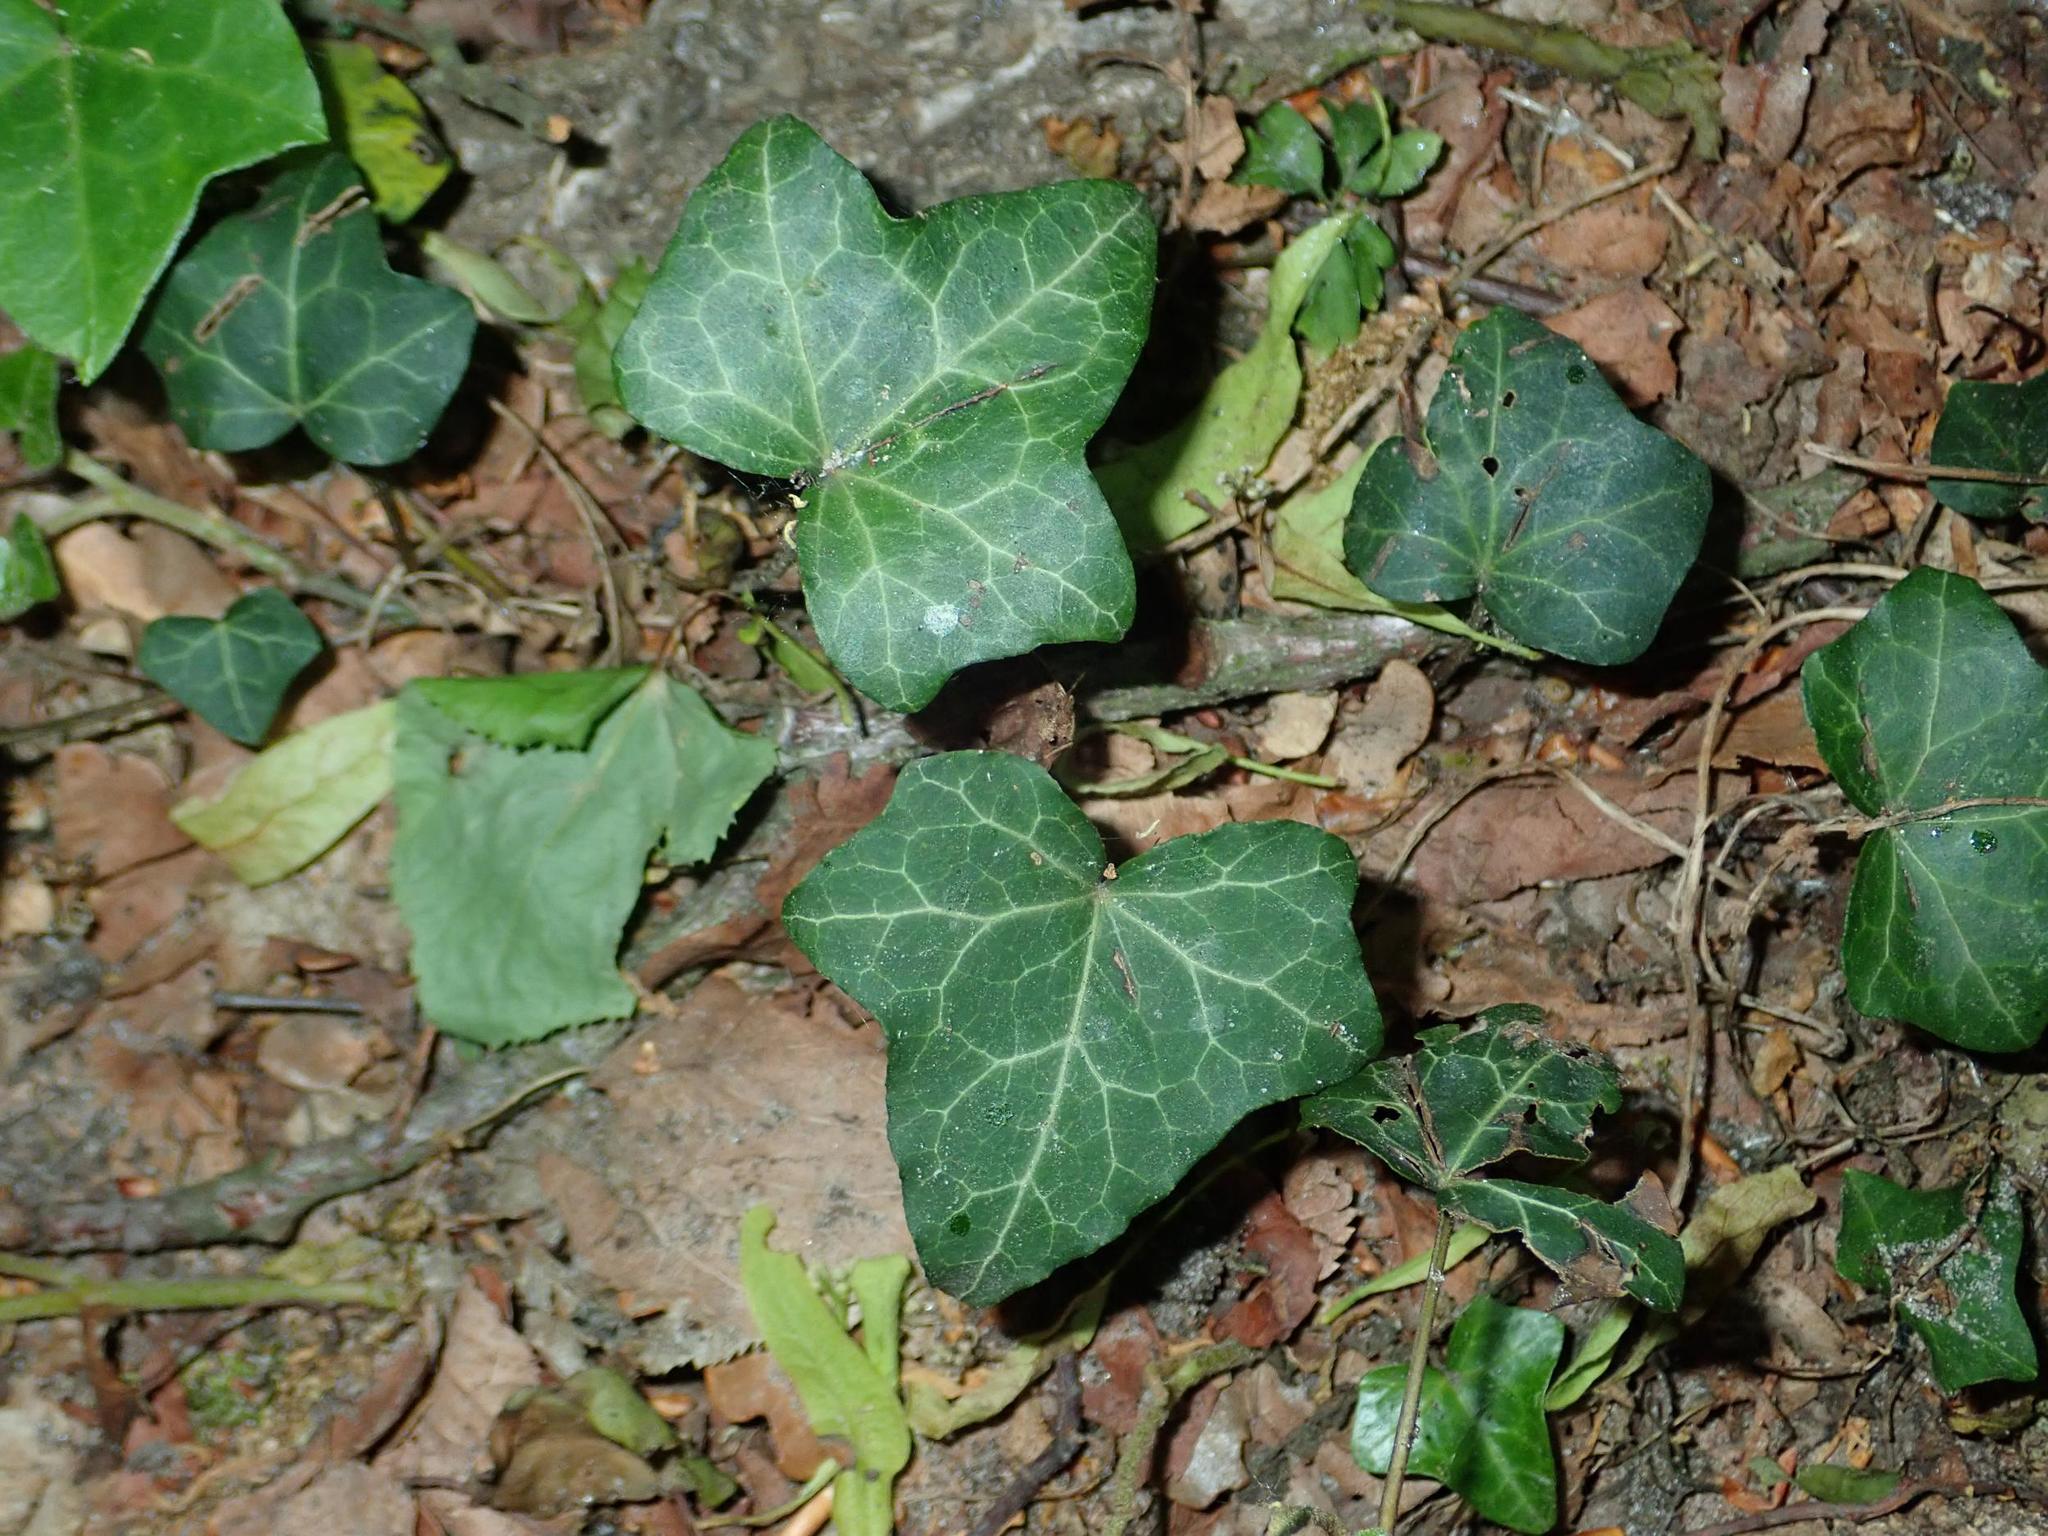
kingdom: Plantae
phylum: Tracheophyta
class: Magnoliopsida
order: Apiales
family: Araliaceae
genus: Hedera
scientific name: Hedera helix
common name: Ivy
